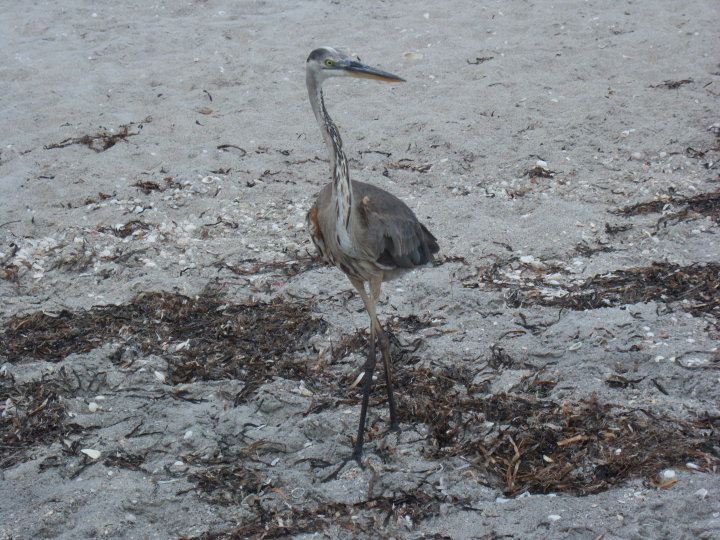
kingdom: Animalia
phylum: Chordata
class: Aves
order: Pelecaniformes
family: Ardeidae
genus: Ardea
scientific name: Ardea herodias
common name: Great blue heron
